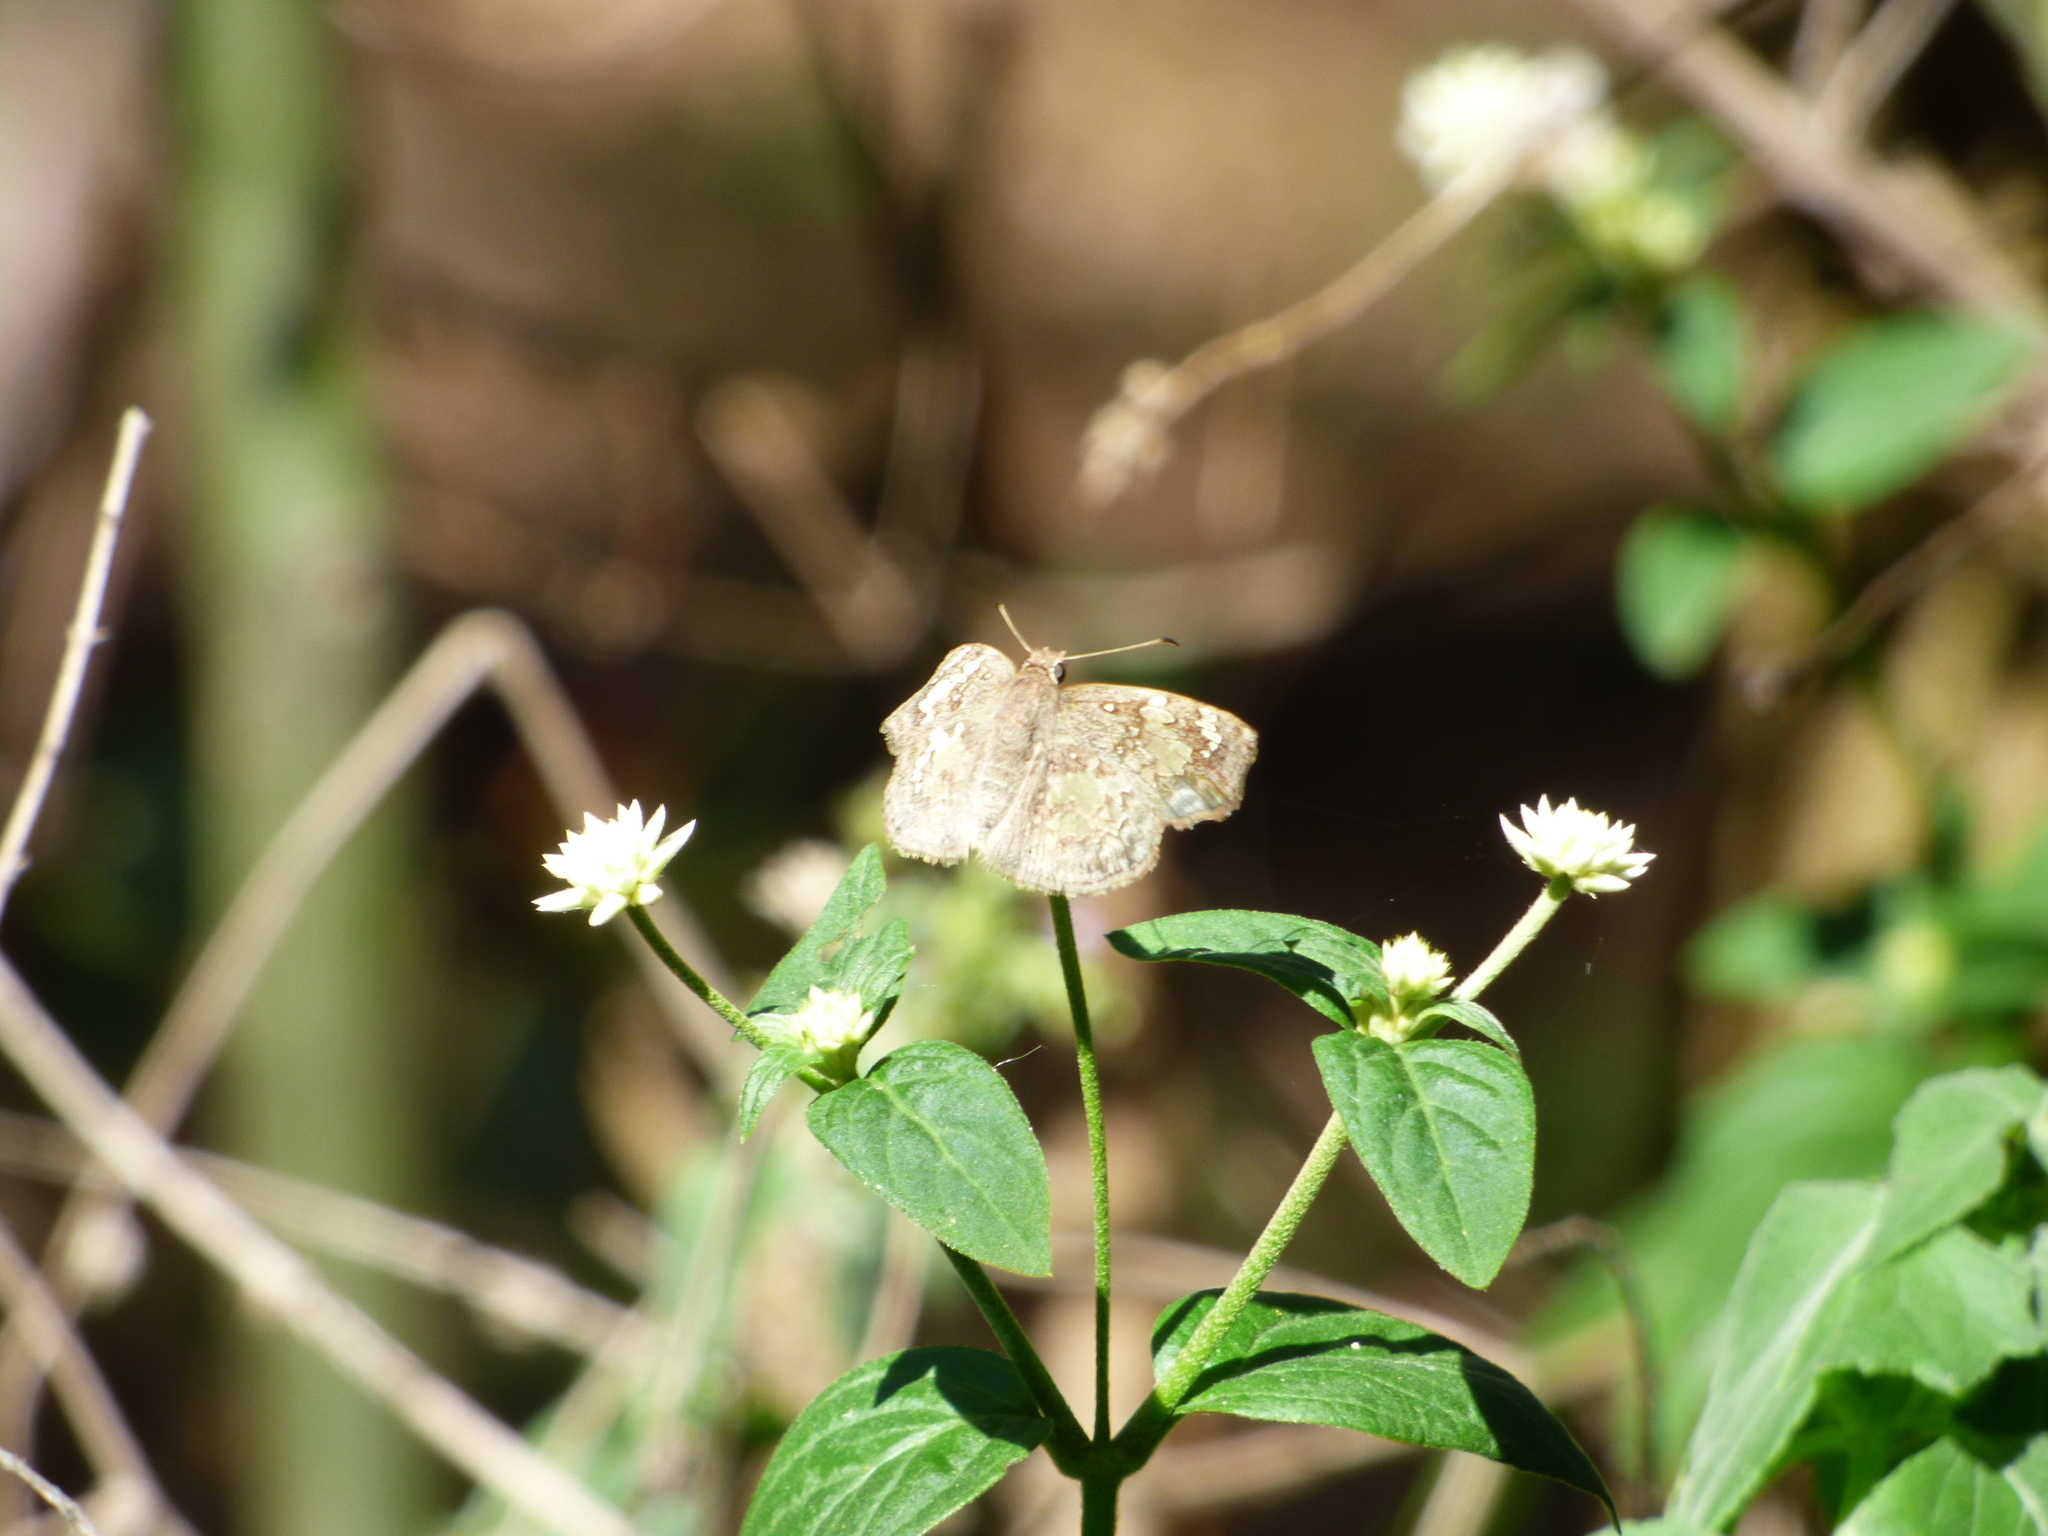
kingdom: Animalia
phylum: Arthropoda
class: Insecta
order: Lepidoptera
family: Hesperiidae
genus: Xenophanes
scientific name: Xenophanes tryxus
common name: Glassy-winged skipper
